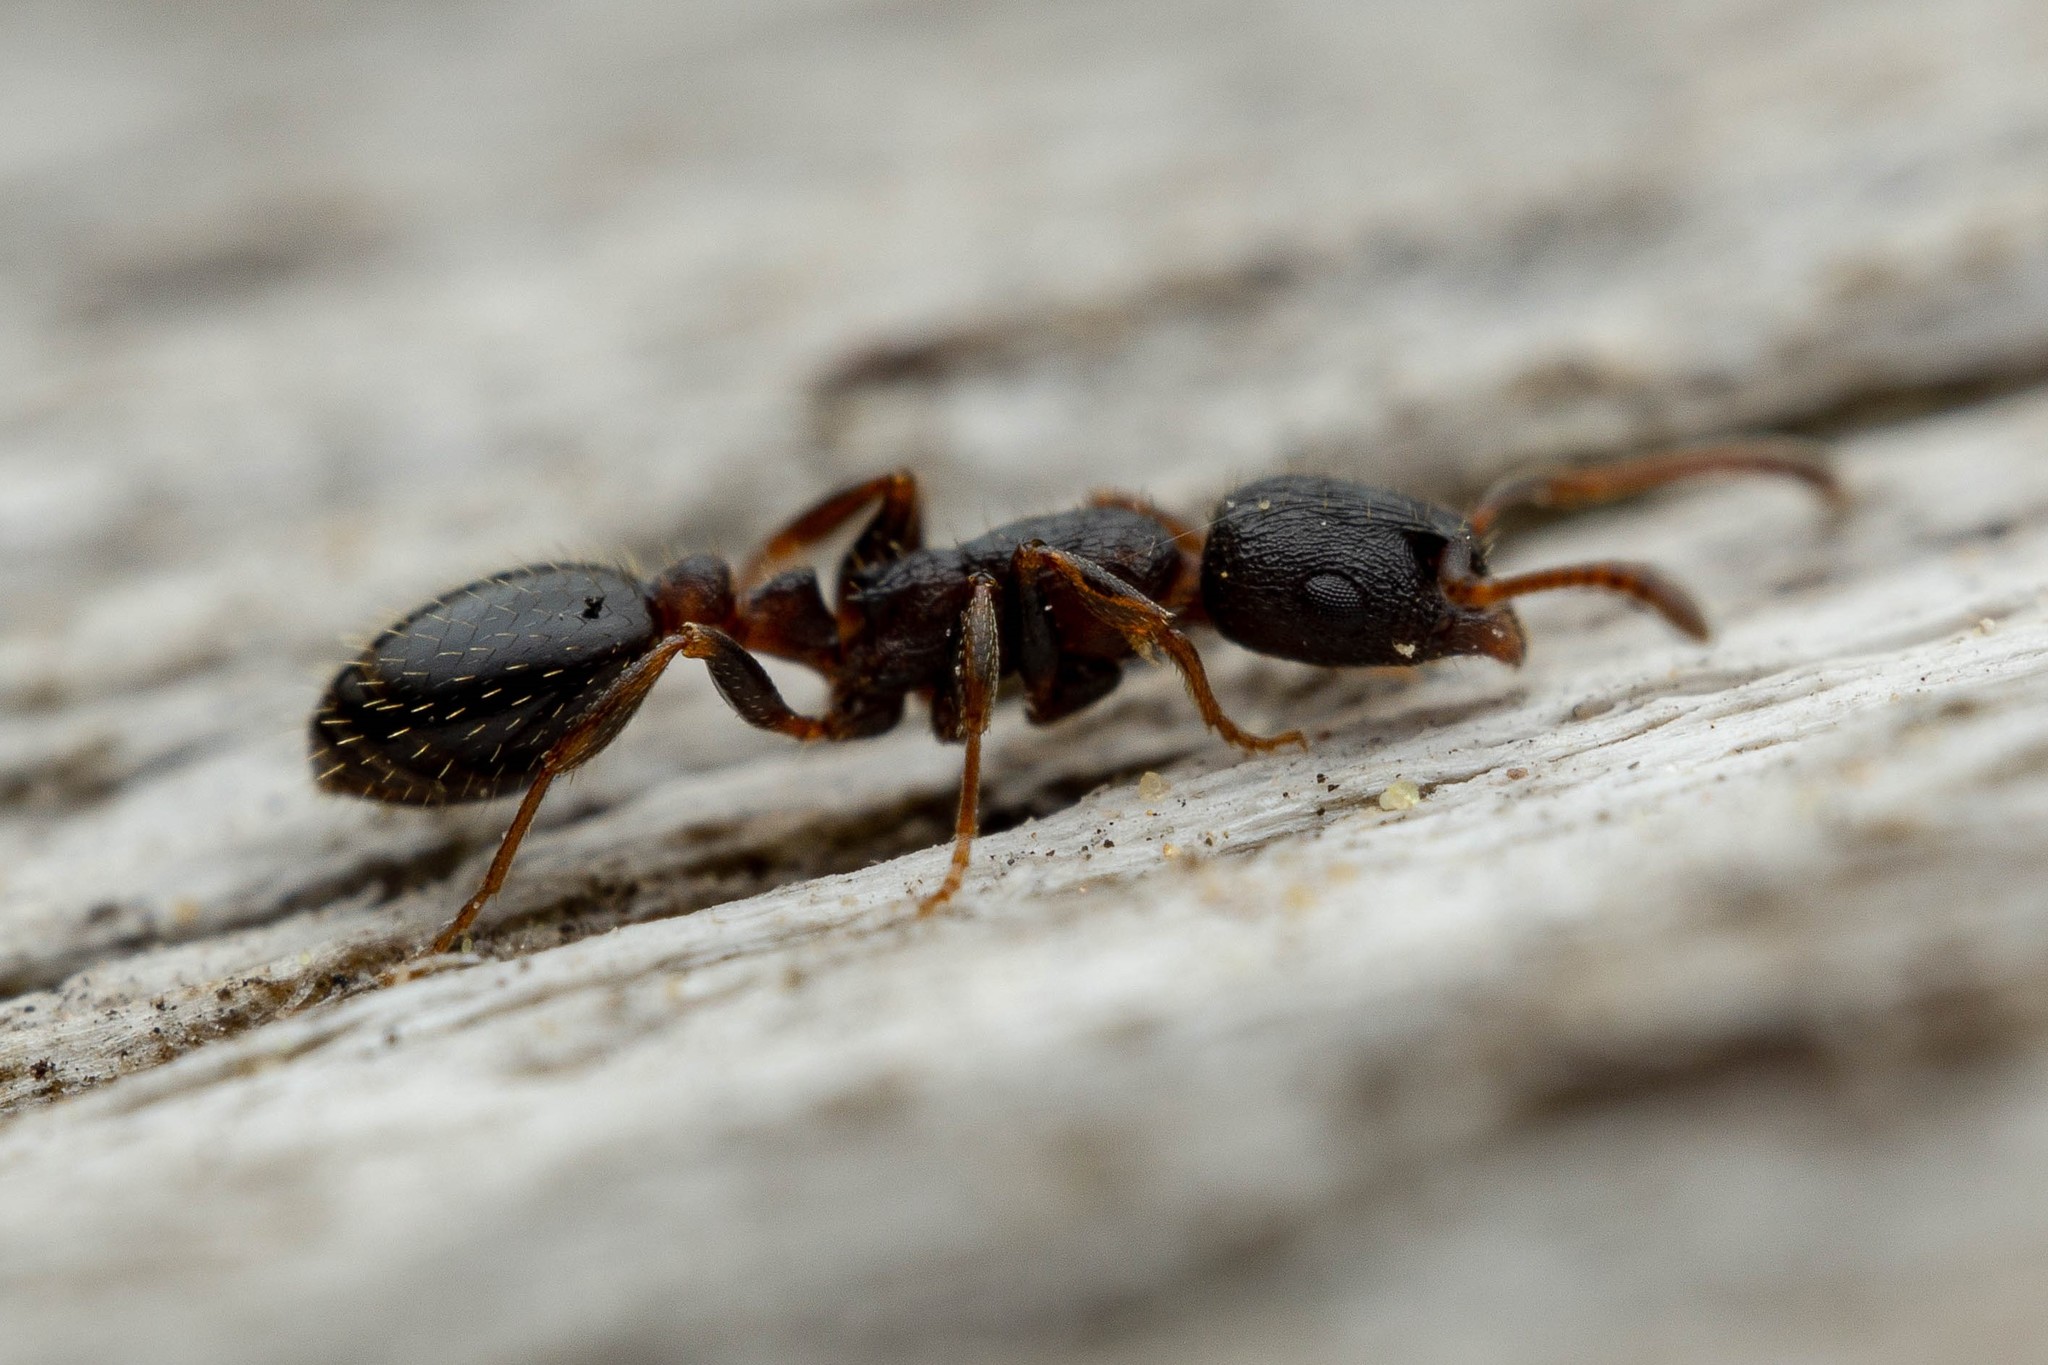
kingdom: Animalia
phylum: Arthropoda
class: Insecta
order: Hymenoptera
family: Formicidae
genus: Leptothorax
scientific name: Leptothorax crassipilis
